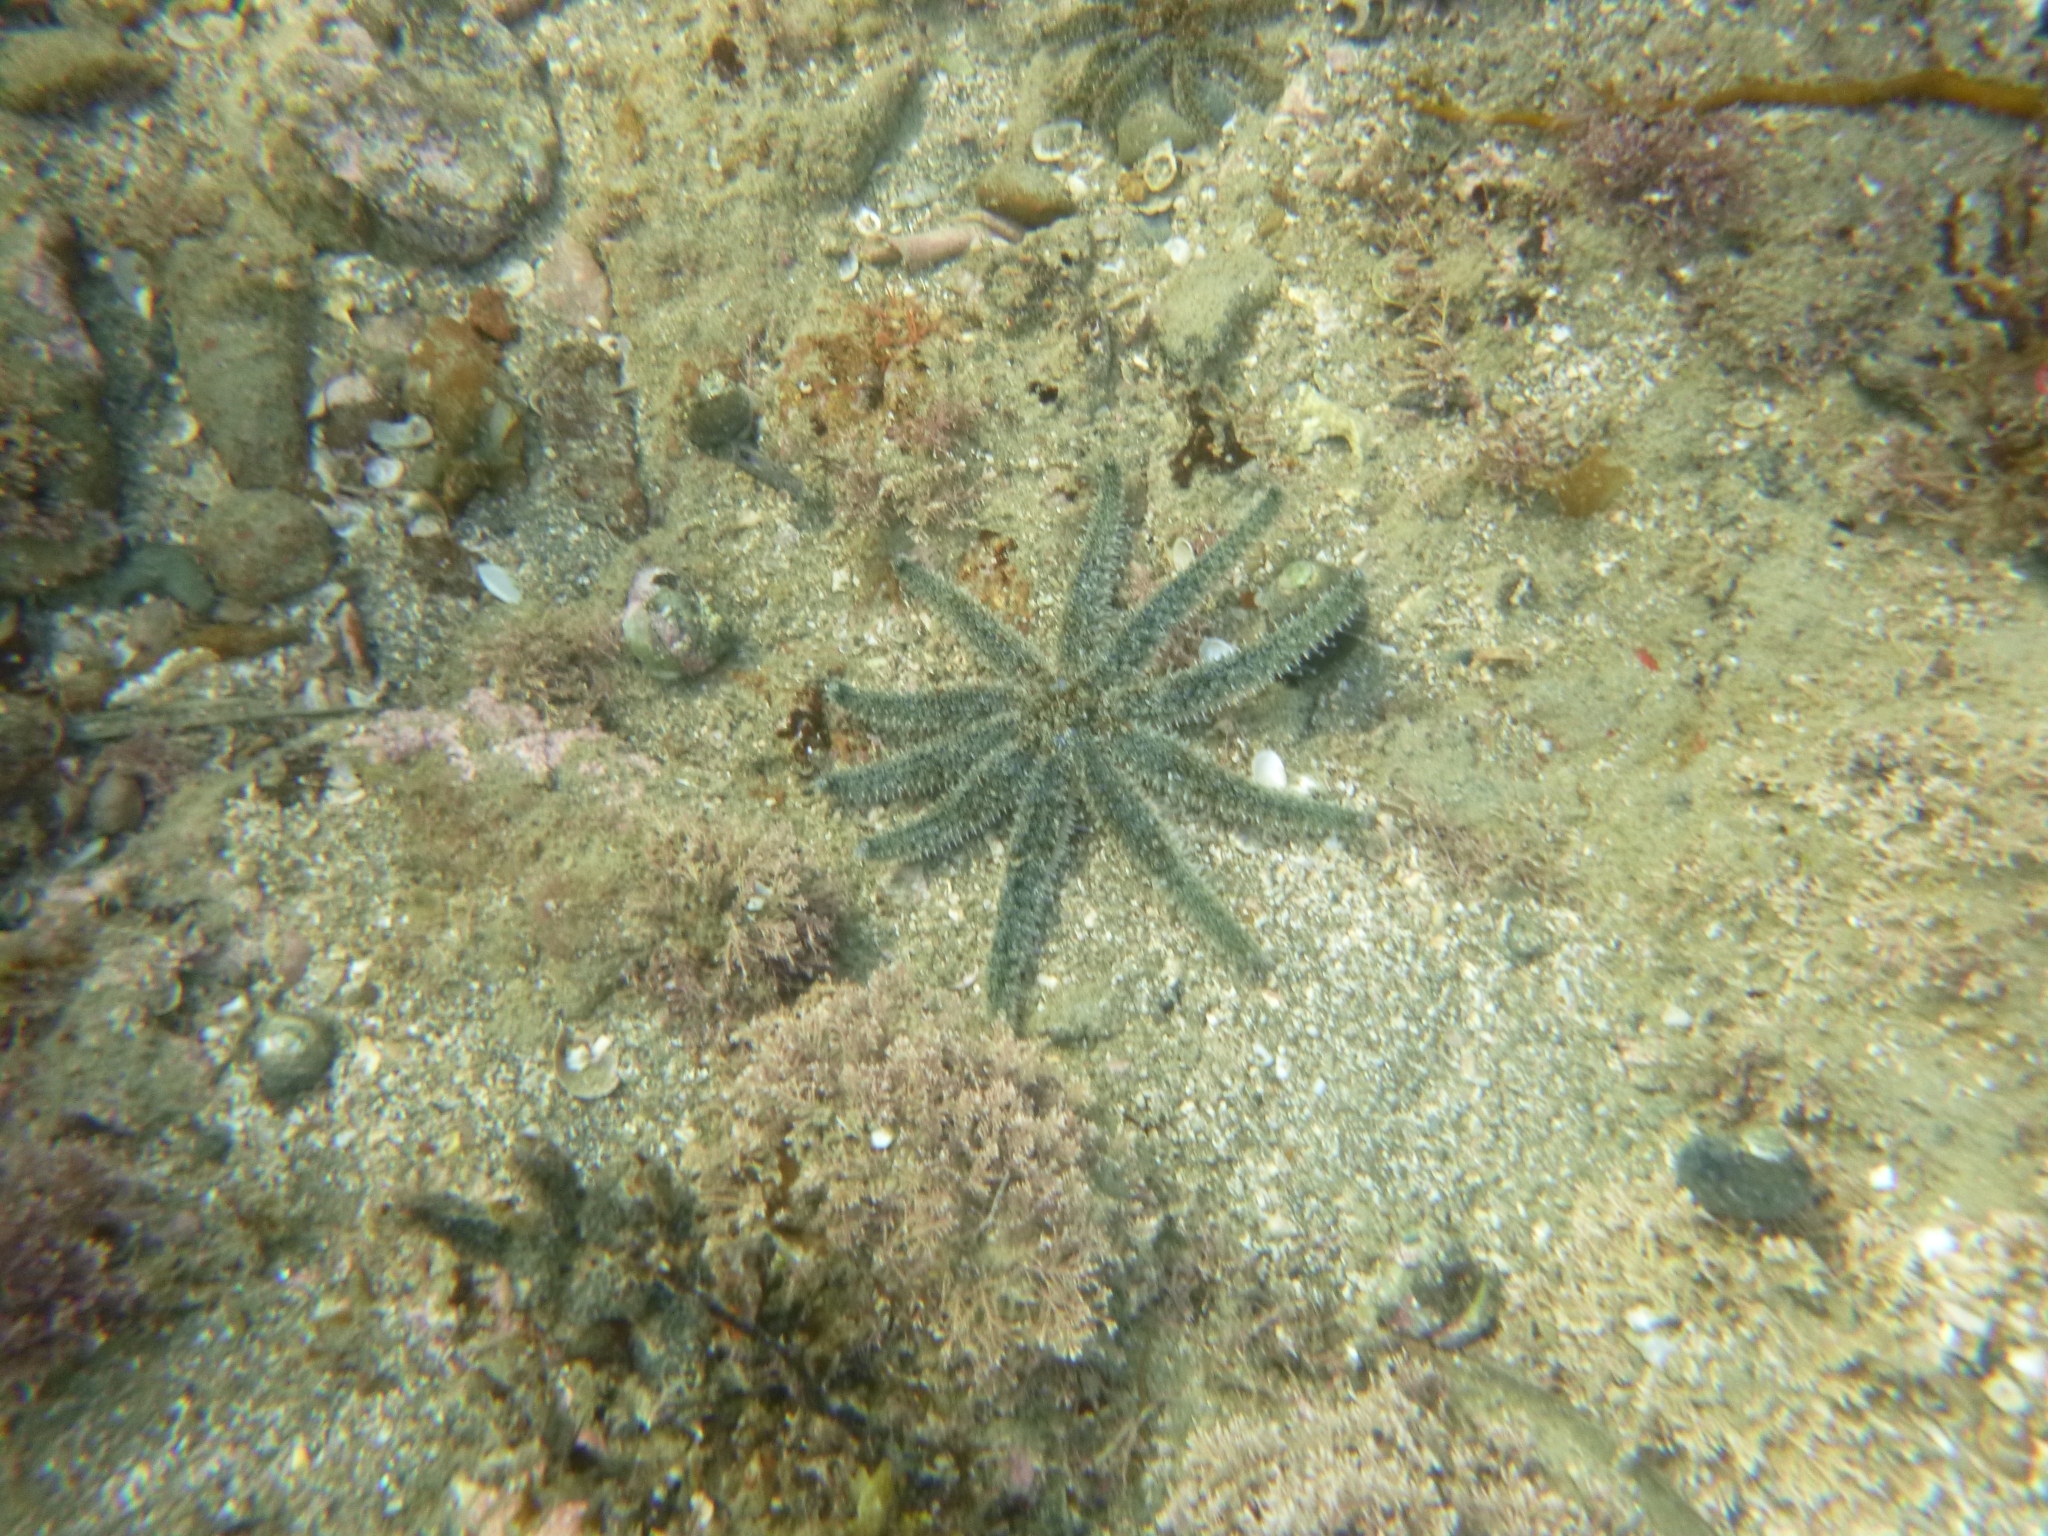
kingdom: Animalia
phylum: Echinodermata
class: Asteroidea
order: Forcipulatida
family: Asteriidae
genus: Coscinasterias
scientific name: Coscinasterias muricata
